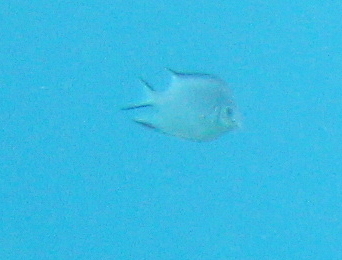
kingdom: Animalia
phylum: Chordata
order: Perciformes
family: Pomacentridae
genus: Amblyglyphidodon
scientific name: Amblyglyphidodon indicus
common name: Maldives damselfish
